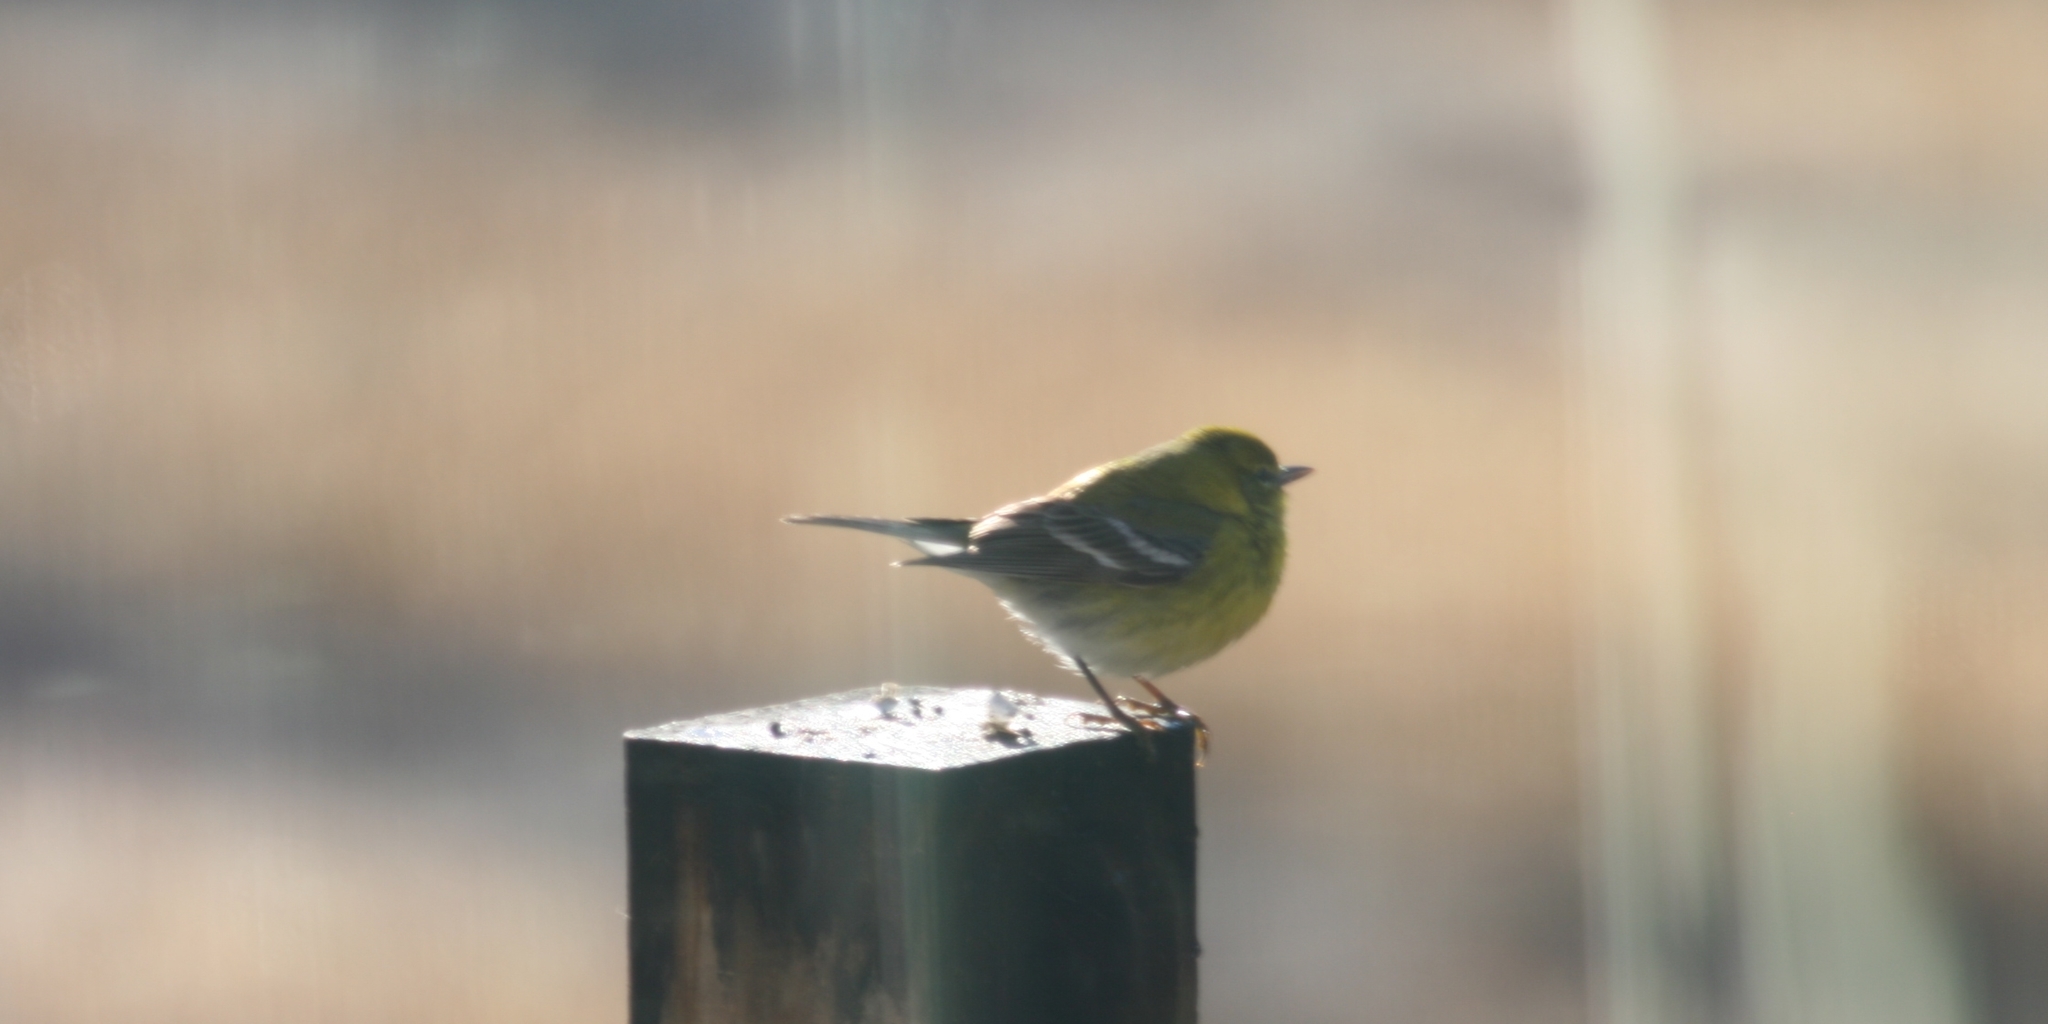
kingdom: Animalia
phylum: Chordata
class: Aves
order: Passeriformes
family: Parulidae
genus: Setophaga
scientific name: Setophaga pinus
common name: Pine warbler
